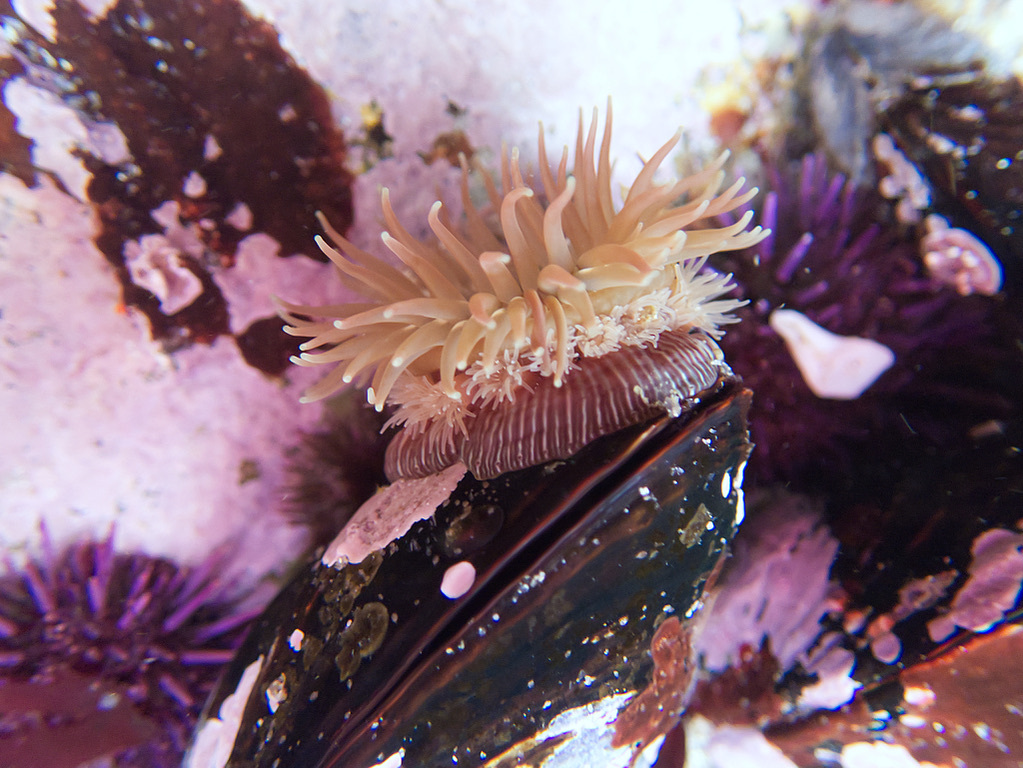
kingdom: Animalia
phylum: Cnidaria
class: Anthozoa
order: Actiniaria
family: Actiniidae
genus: Epiactis
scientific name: Epiactis prolifera
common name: Brooding anemone
